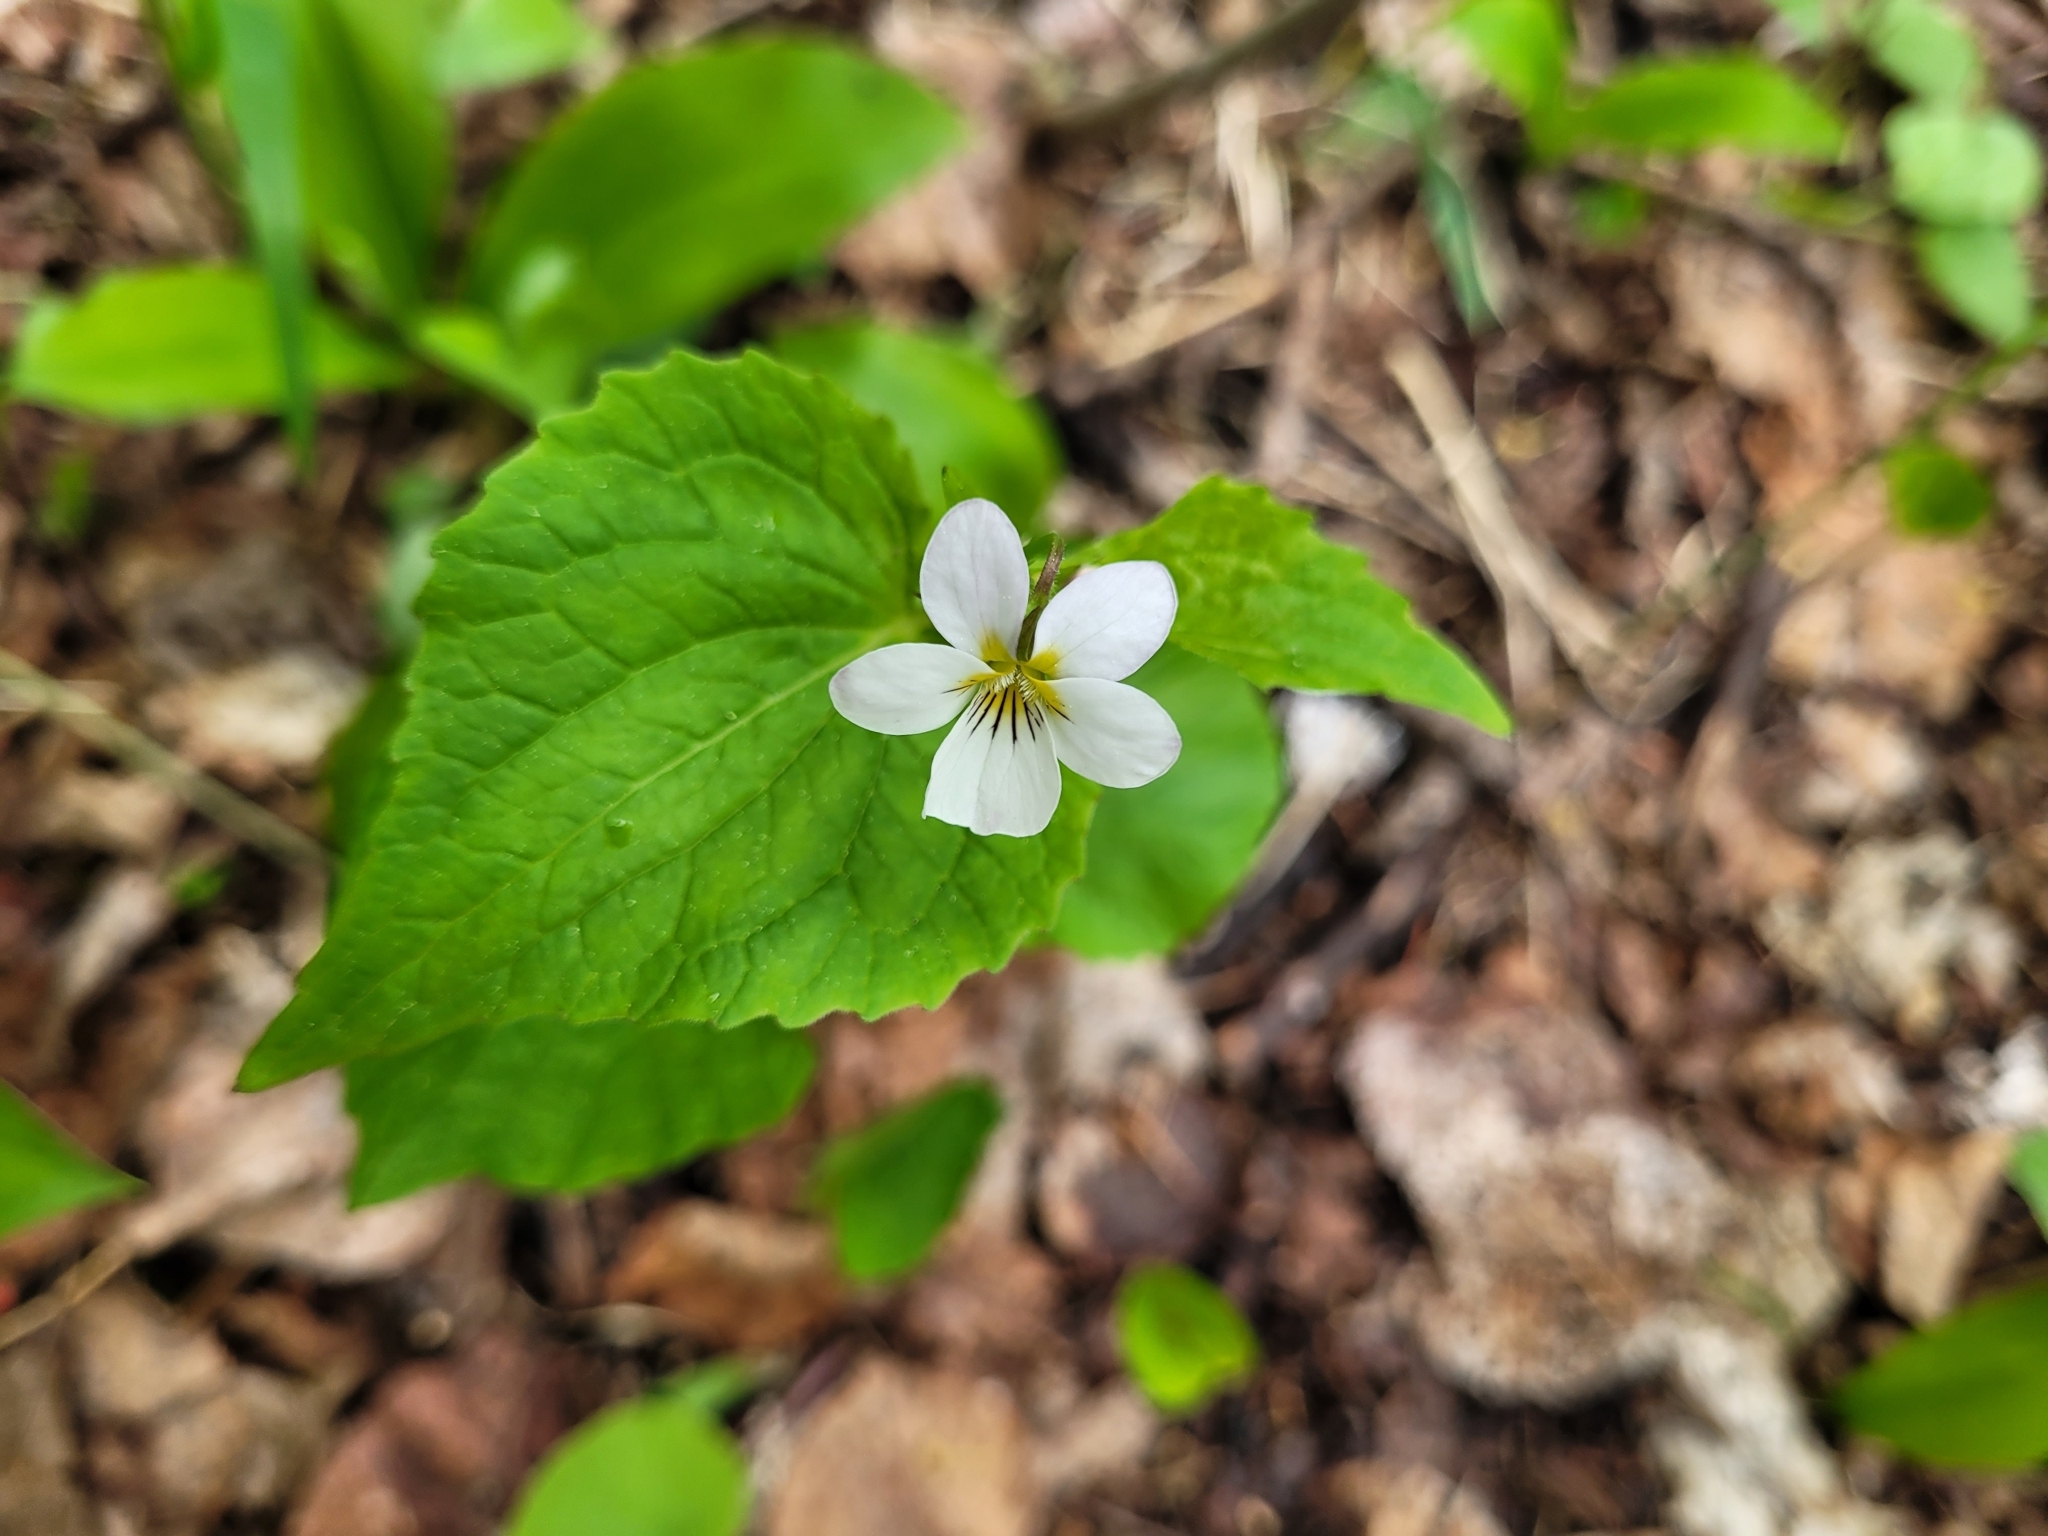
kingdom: Plantae
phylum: Tracheophyta
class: Magnoliopsida
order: Malpighiales
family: Violaceae
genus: Viola
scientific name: Viola canadensis
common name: Canada violet
